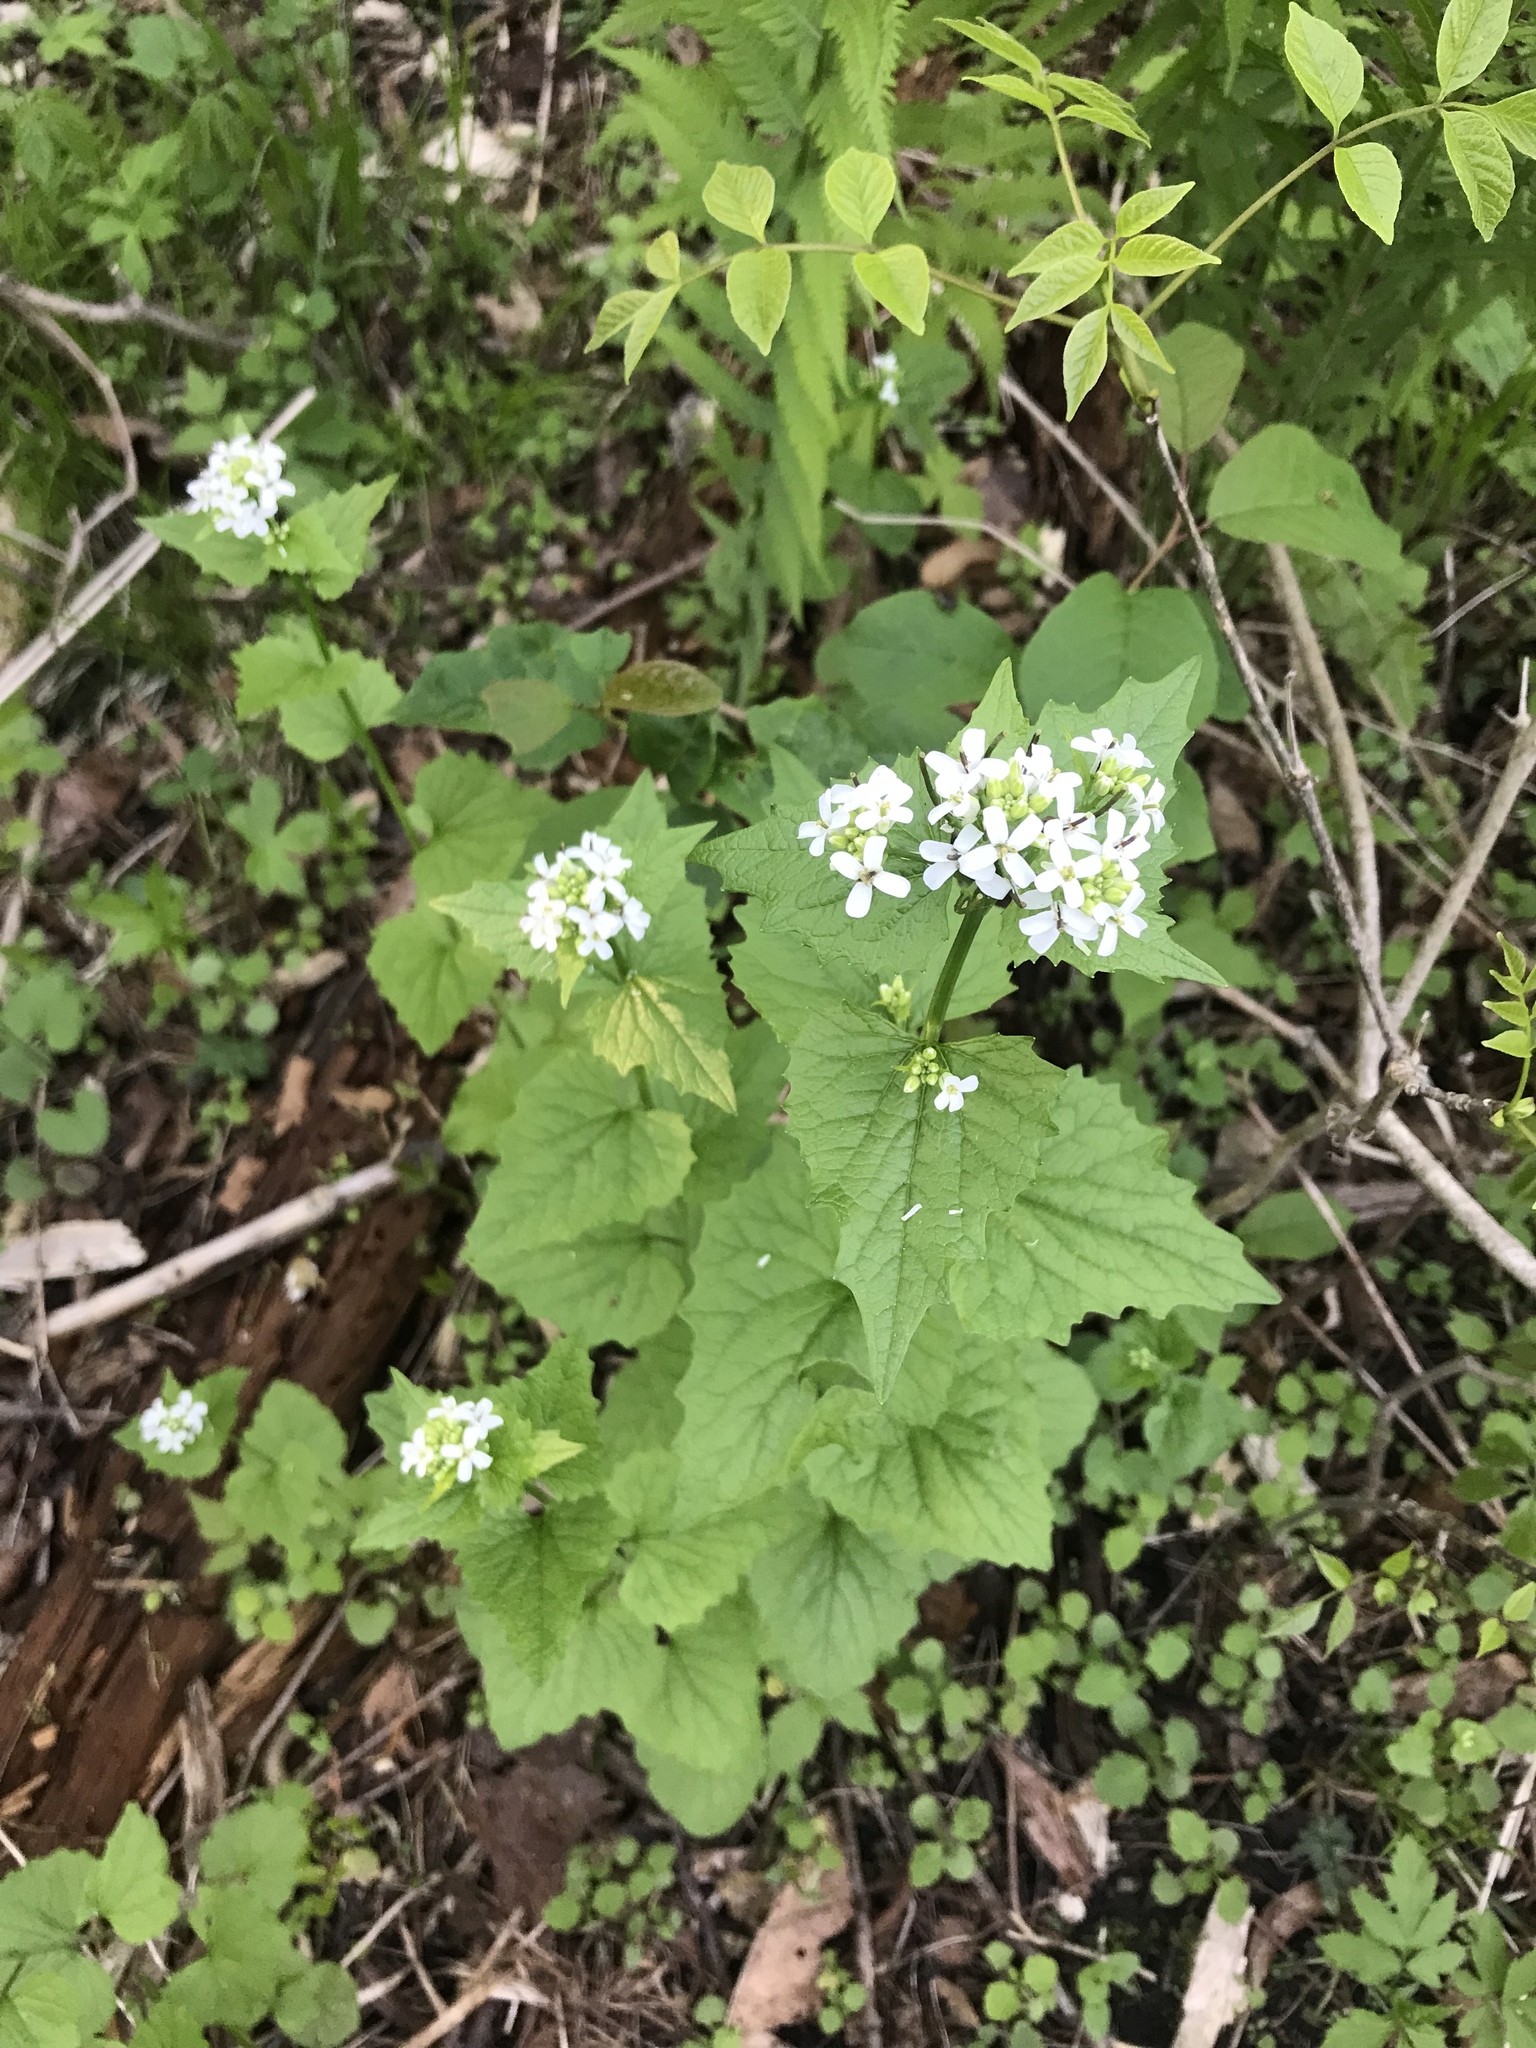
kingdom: Plantae
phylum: Tracheophyta
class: Magnoliopsida
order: Brassicales
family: Brassicaceae
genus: Alliaria
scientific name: Alliaria petiolata
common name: Garlic mustard
